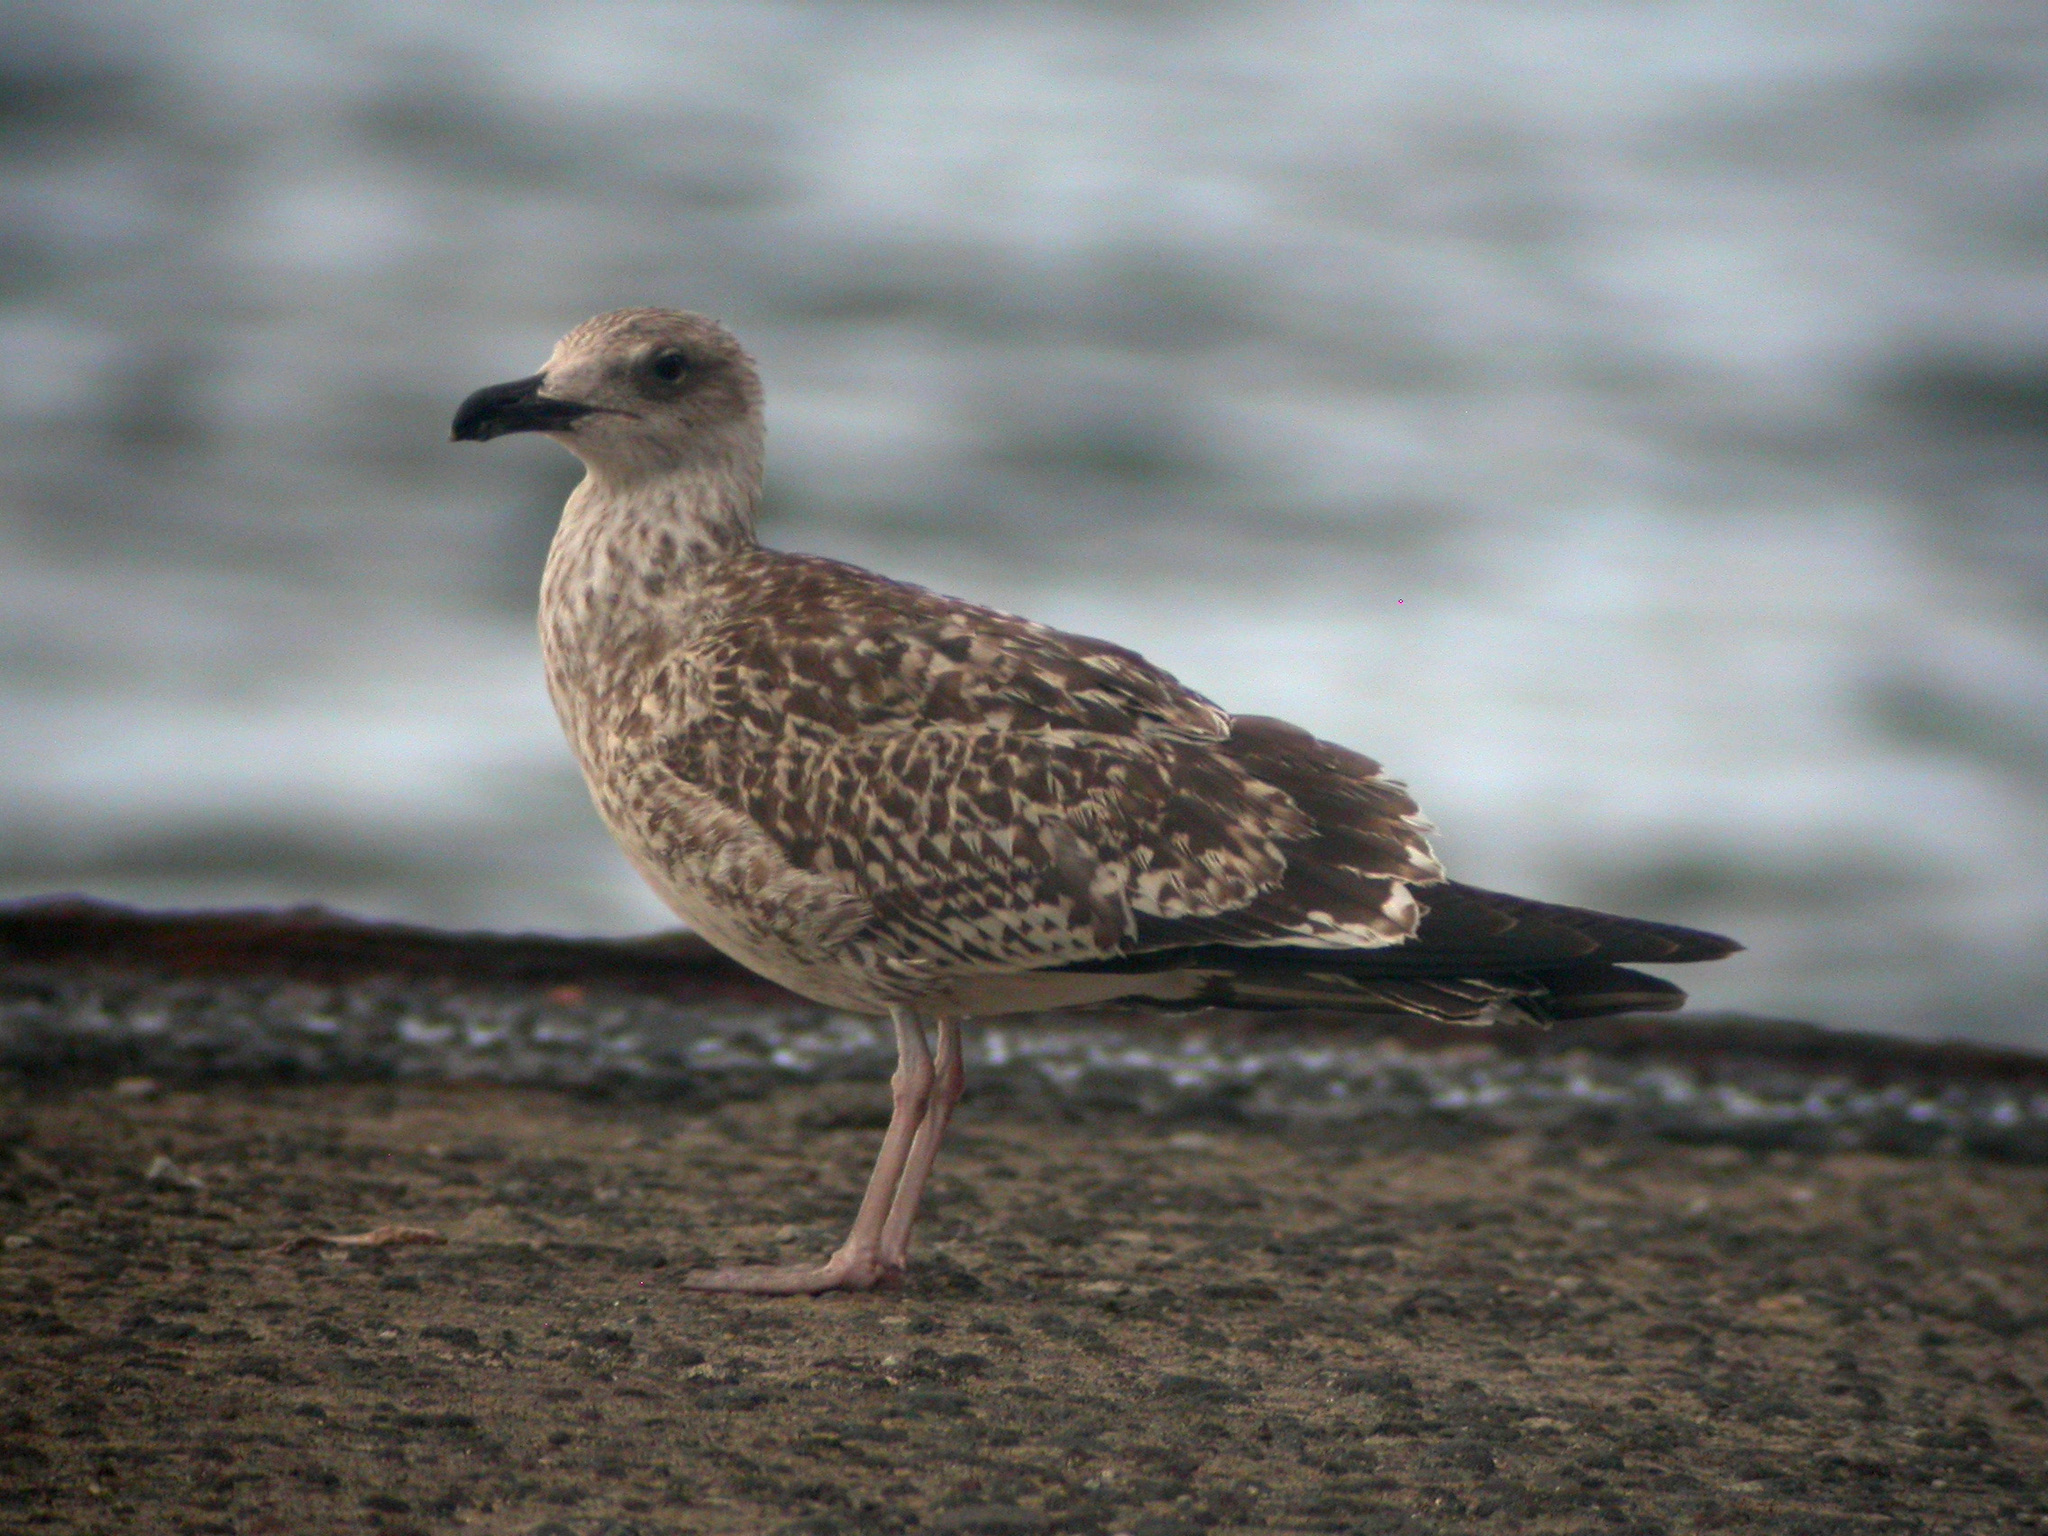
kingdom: Animalia
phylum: Chordata
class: Aves
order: Charadriiformes
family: Laridae
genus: Larus
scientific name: Larus michahellis
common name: Yellow-legged gull
